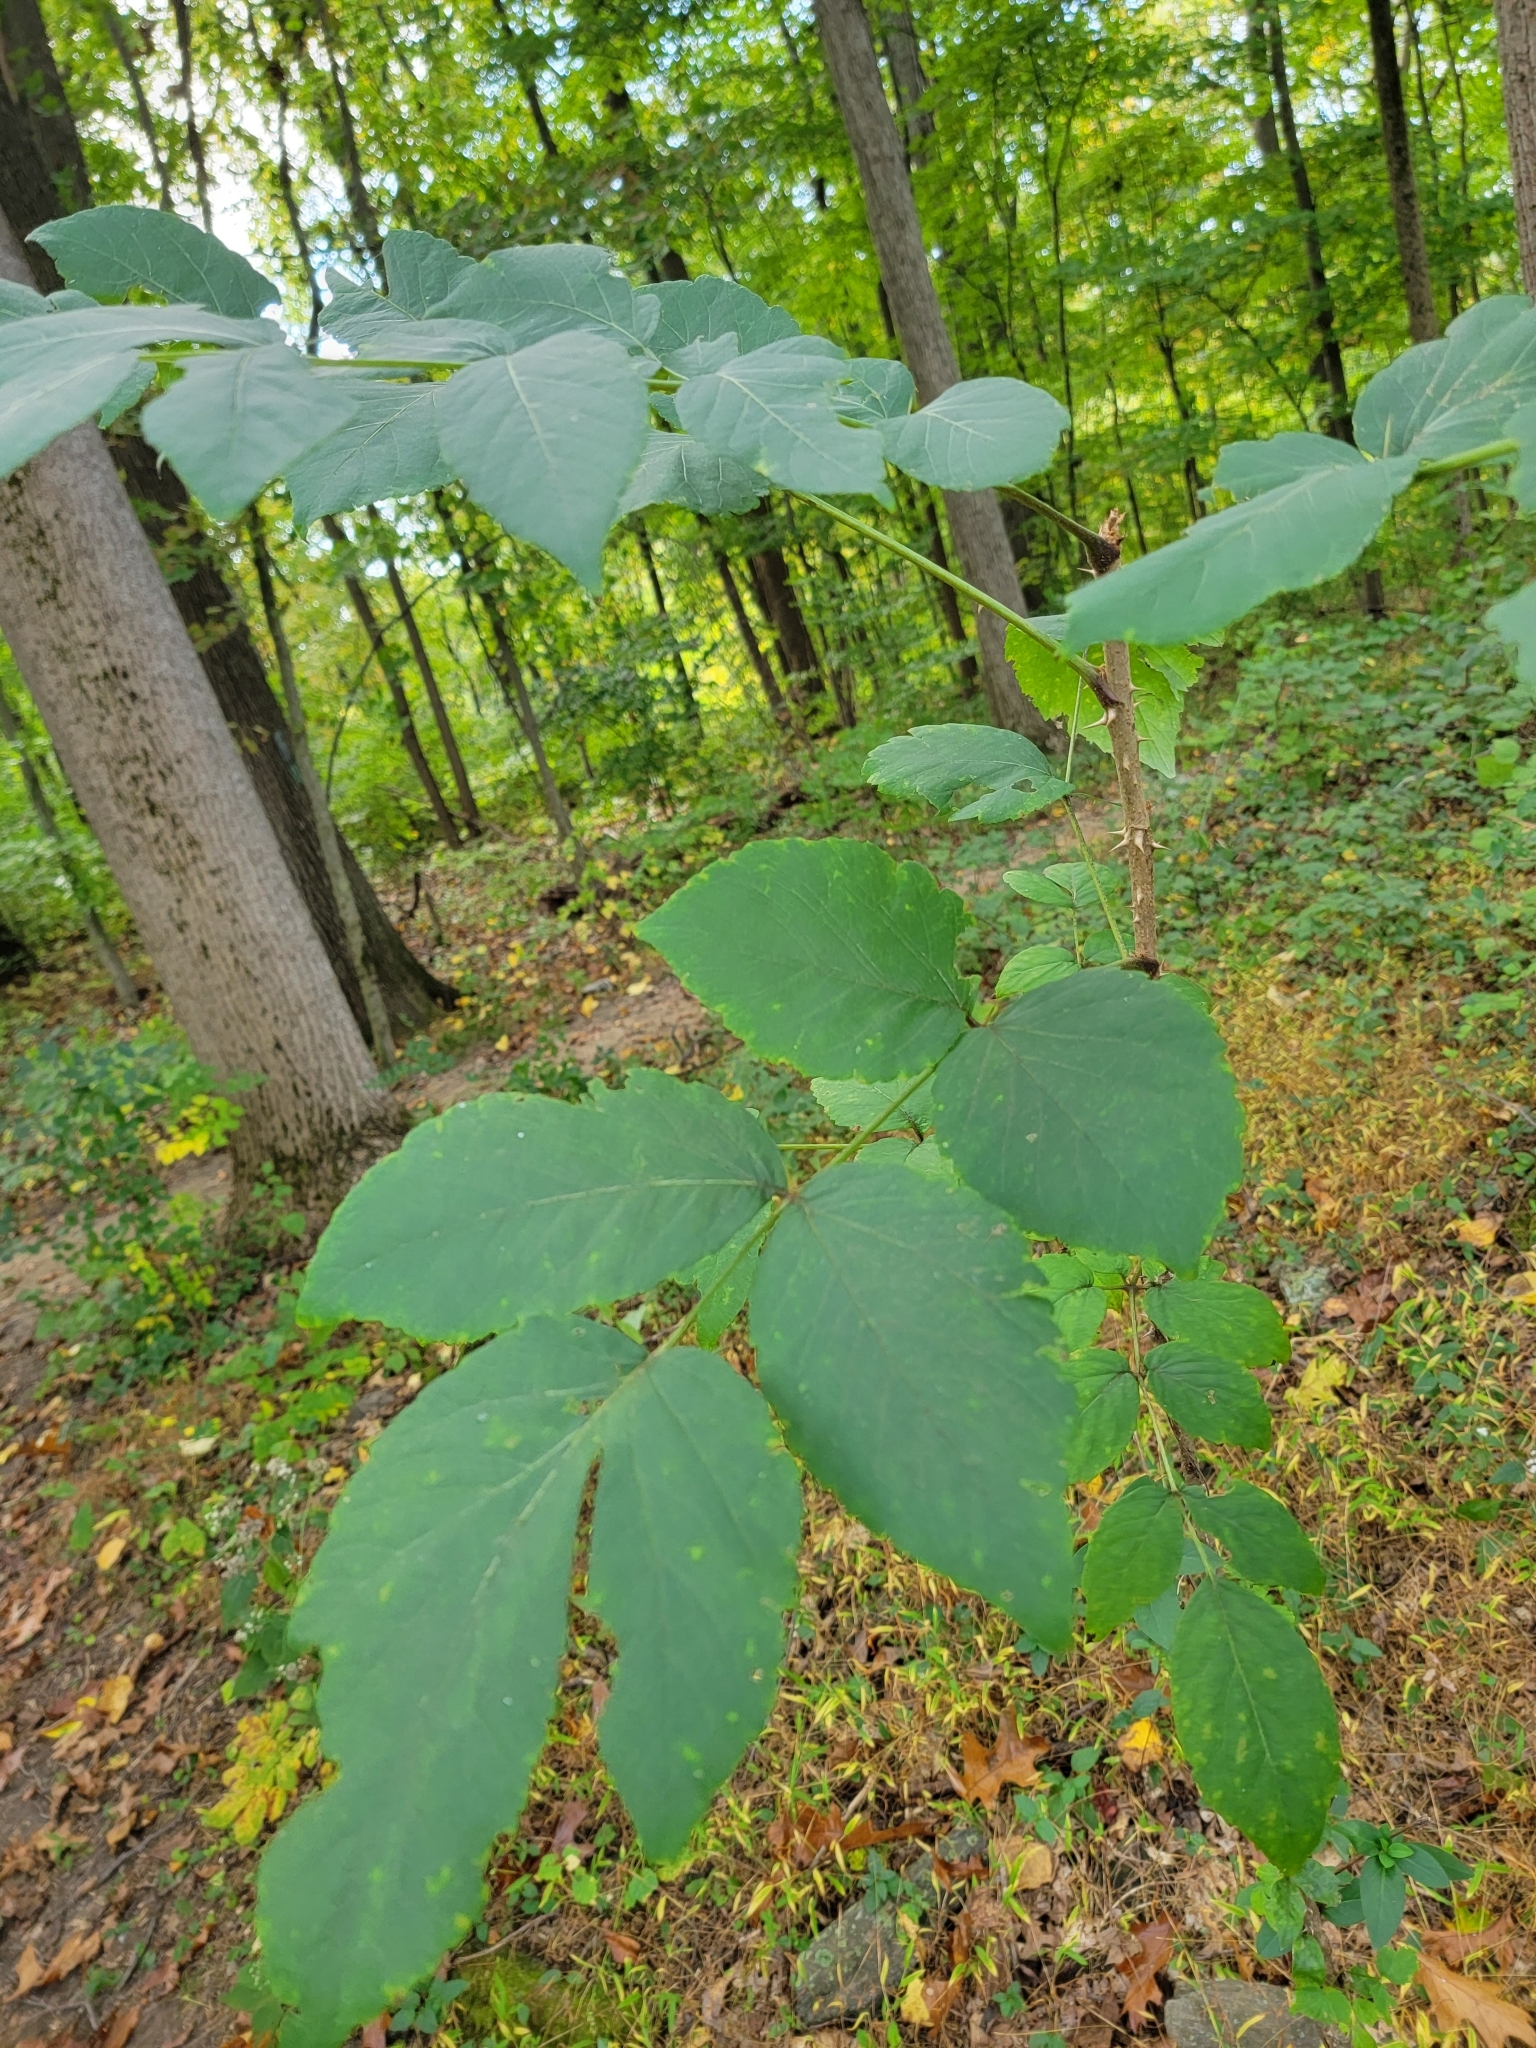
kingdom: Plantae
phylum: Tracheophyta
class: Magnoliopsida
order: Apiales
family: Araliaceae
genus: Aralia
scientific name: Aralia elata
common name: Japanese angelica-tree
